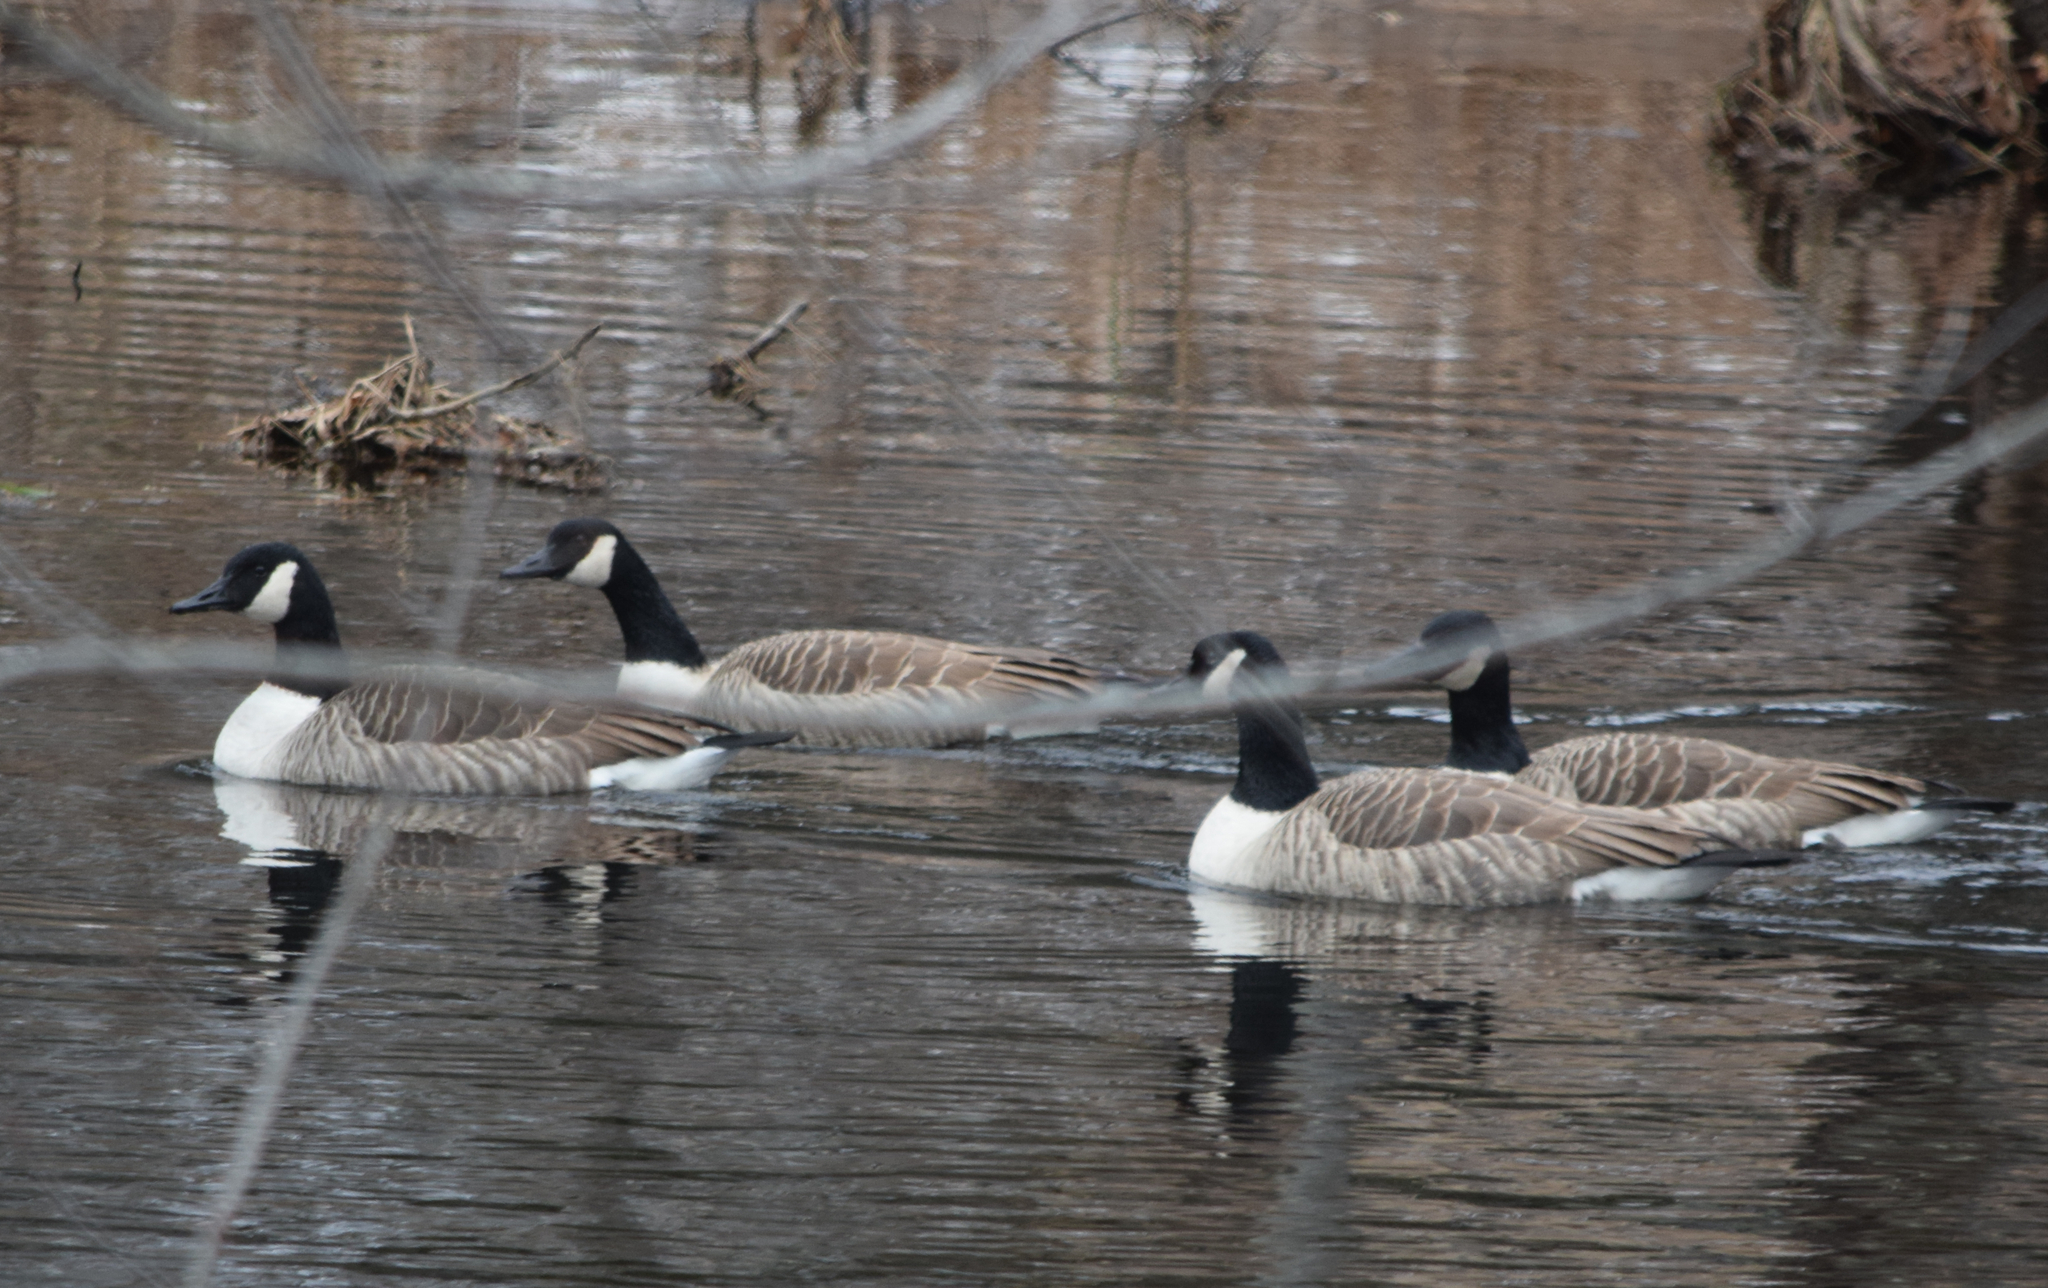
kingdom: Animalia
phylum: Chordata
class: Aves
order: Anseriformes
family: Anatidae
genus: Branta
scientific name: Branta canadensis
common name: Canada goose
